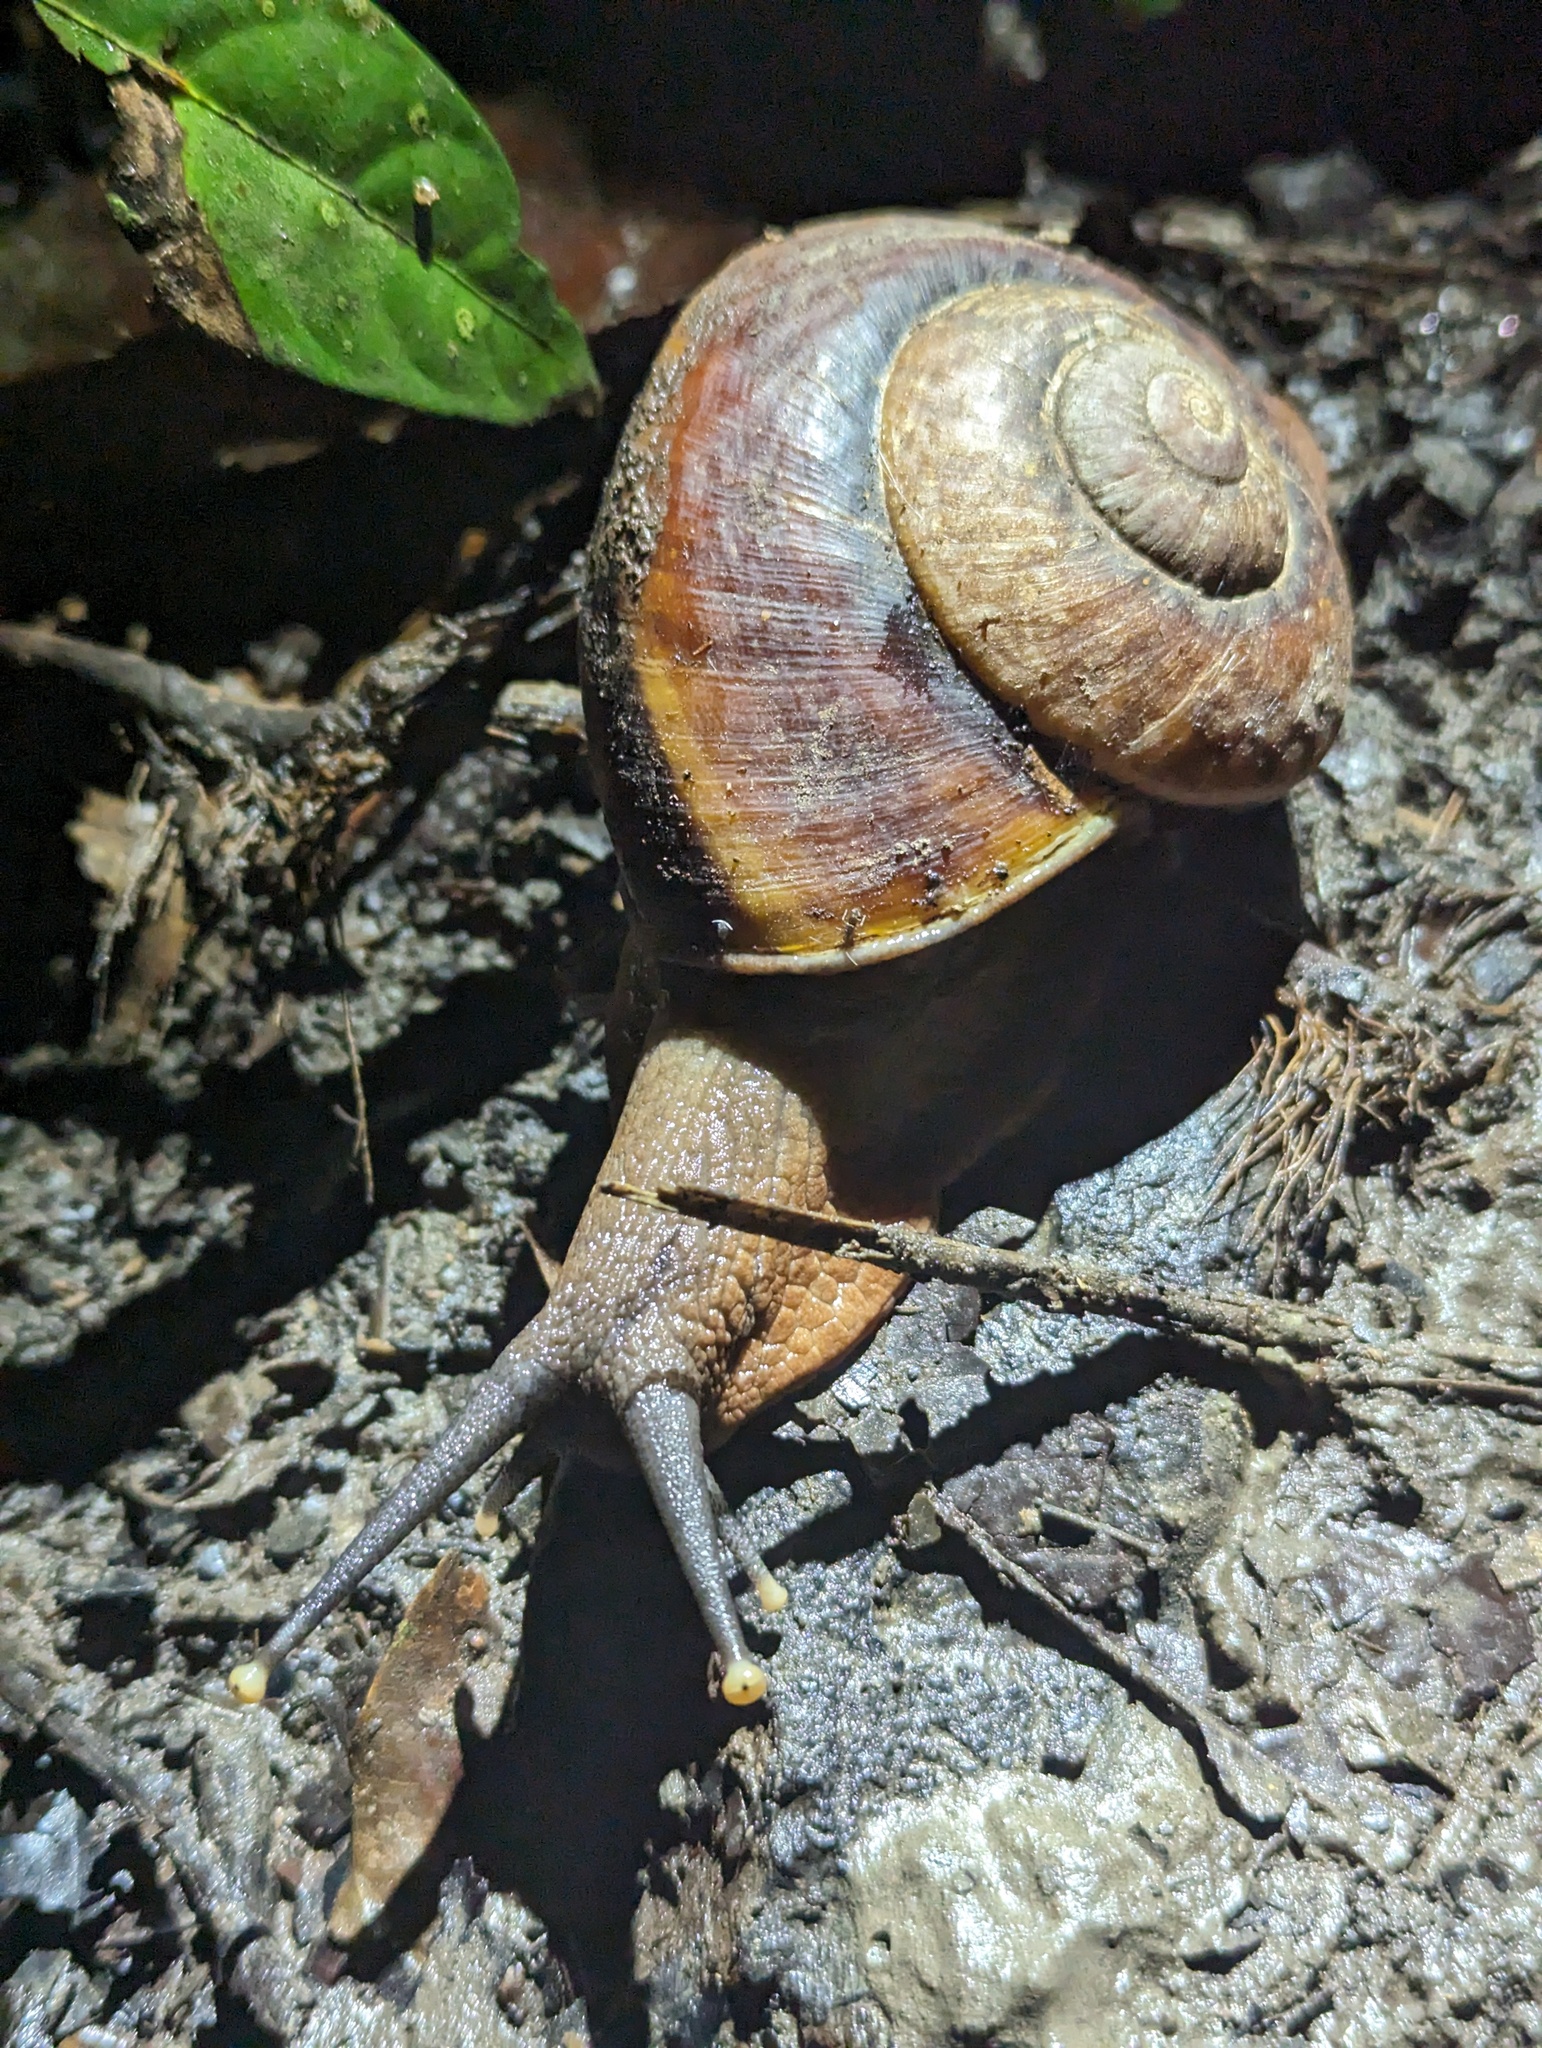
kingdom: Animalia
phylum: Mollusca
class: Gastropoda
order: Stylommatophora
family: Chronidae
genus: Exrhysota
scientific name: Exrhysota brookei
